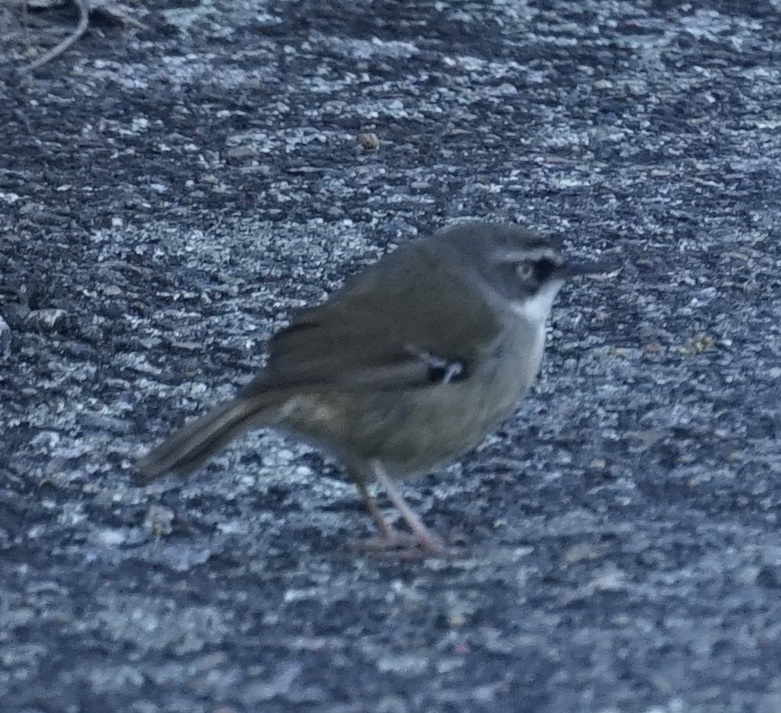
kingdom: Animalia
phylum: Chordata
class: Aves
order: Passeriformes
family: Acanthizidae
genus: Sericornis
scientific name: Sericornis frontalis
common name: White-browed scrubwren
